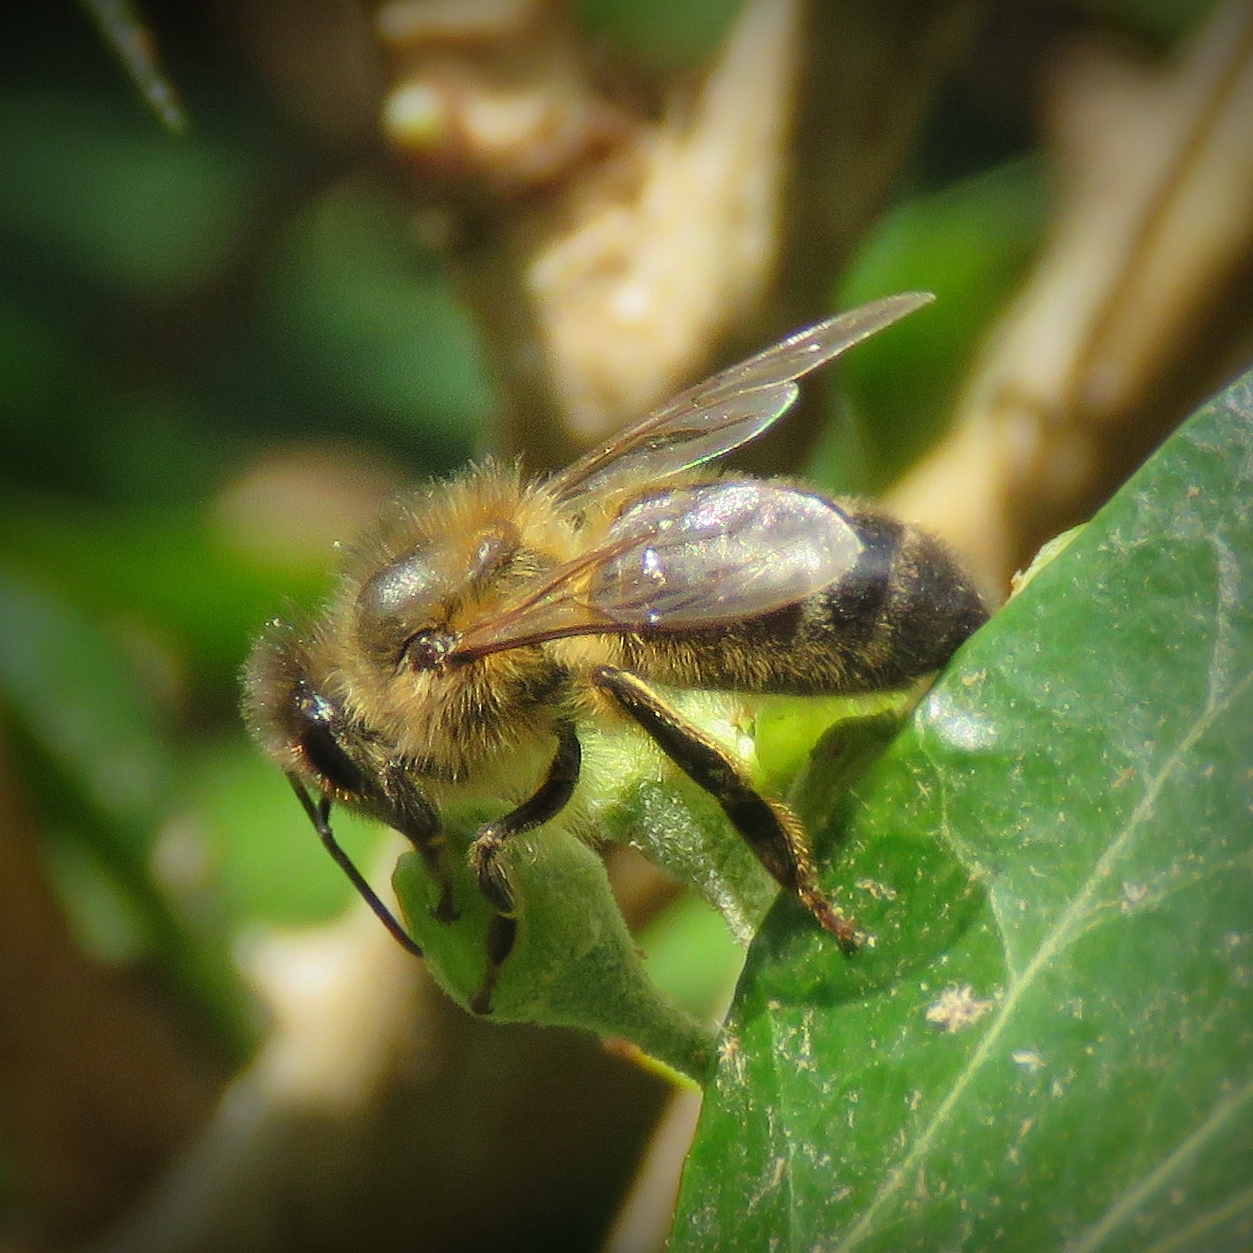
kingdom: Animalia
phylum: Arthropoda
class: Insecta
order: Hymenoptera
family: Apidae
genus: Apis
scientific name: Apis mellifera
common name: Honey bee
